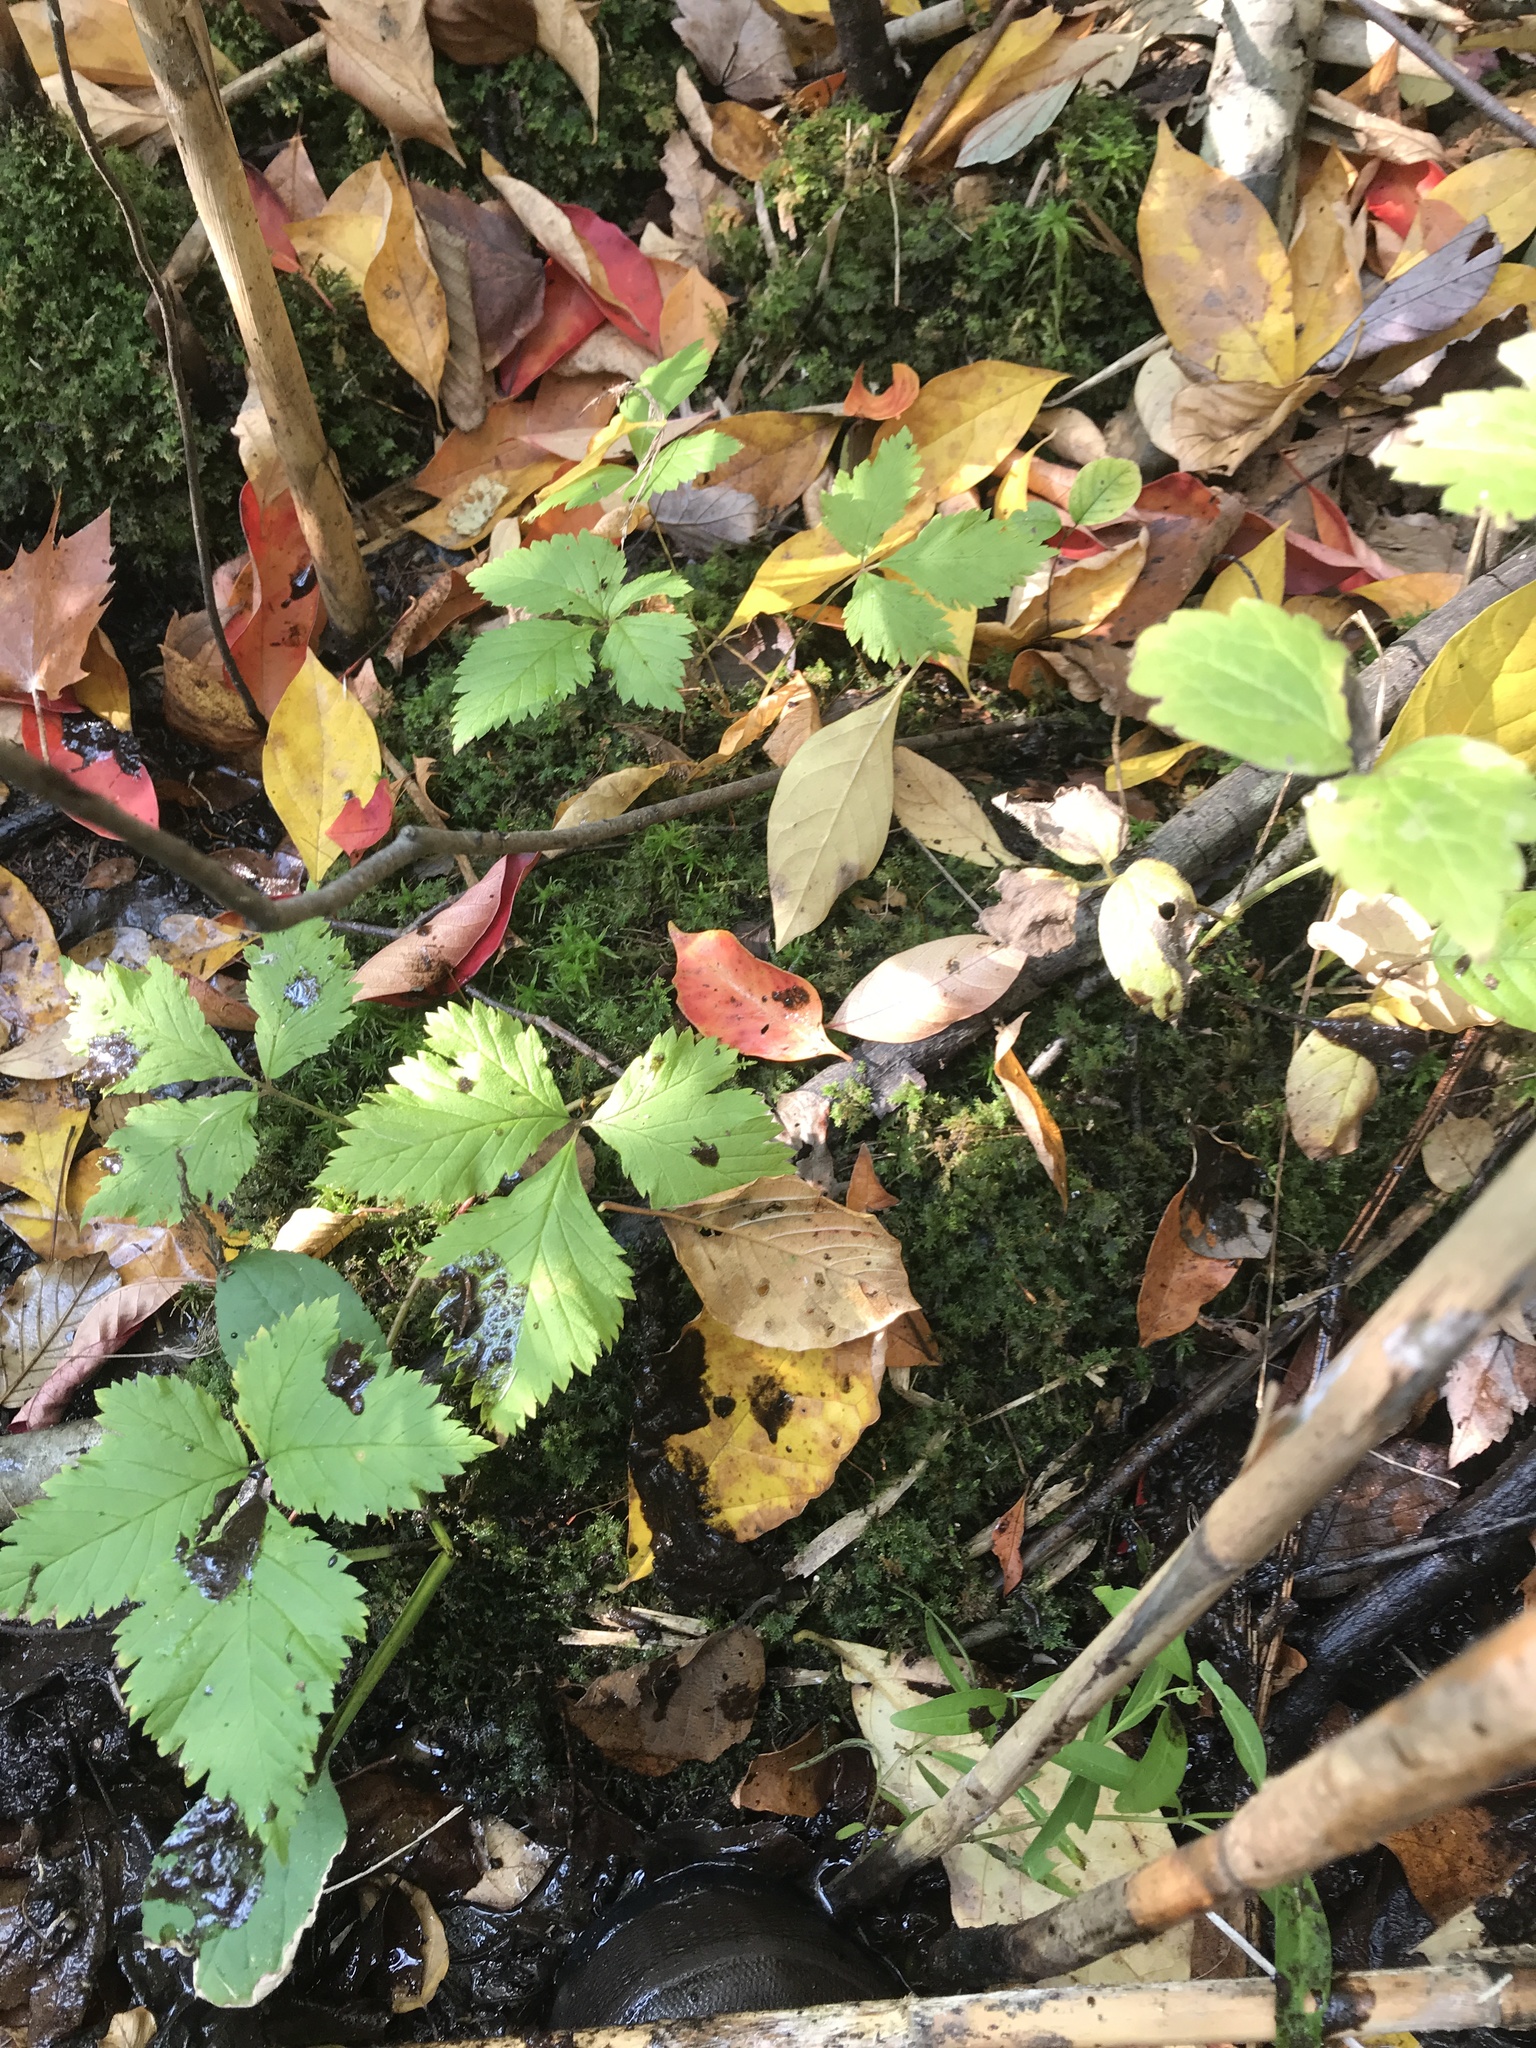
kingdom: Plantae
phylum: Tracheophyta
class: Magnoliopsida
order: Rosales
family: Rosaceae
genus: Rubus
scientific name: Rubus pubescens
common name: Dwarf raspberry
